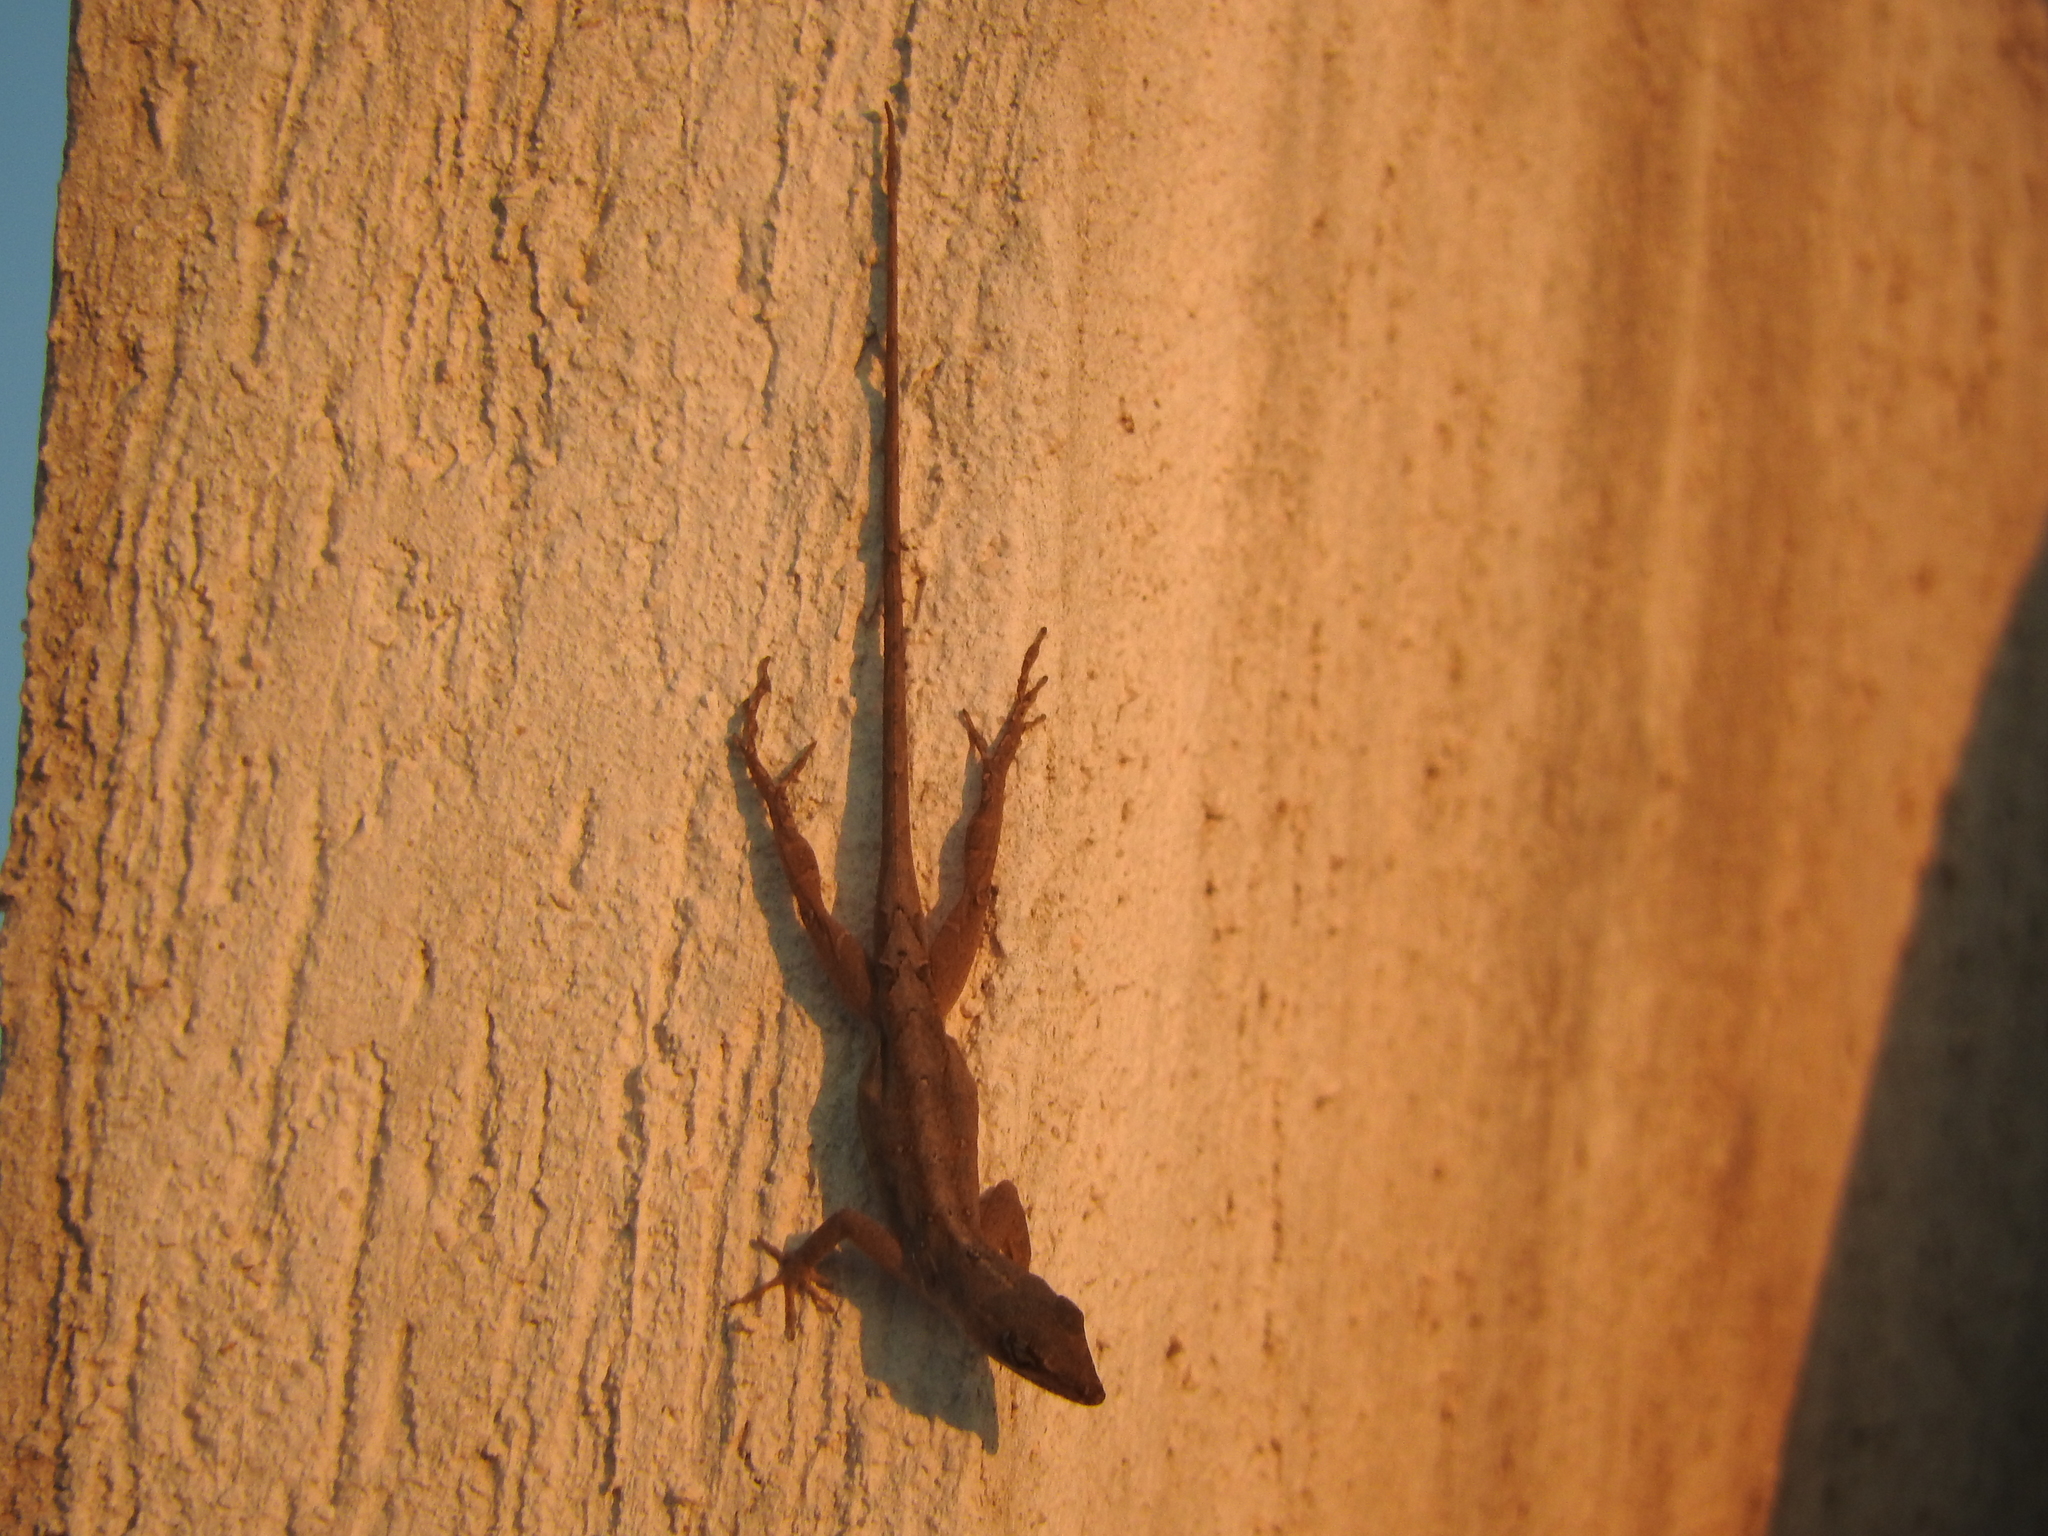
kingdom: Animalia
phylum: Chordata
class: Squamata
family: Dactyloidae
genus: Anolis
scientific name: Anolis sagrei
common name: Brown anole
